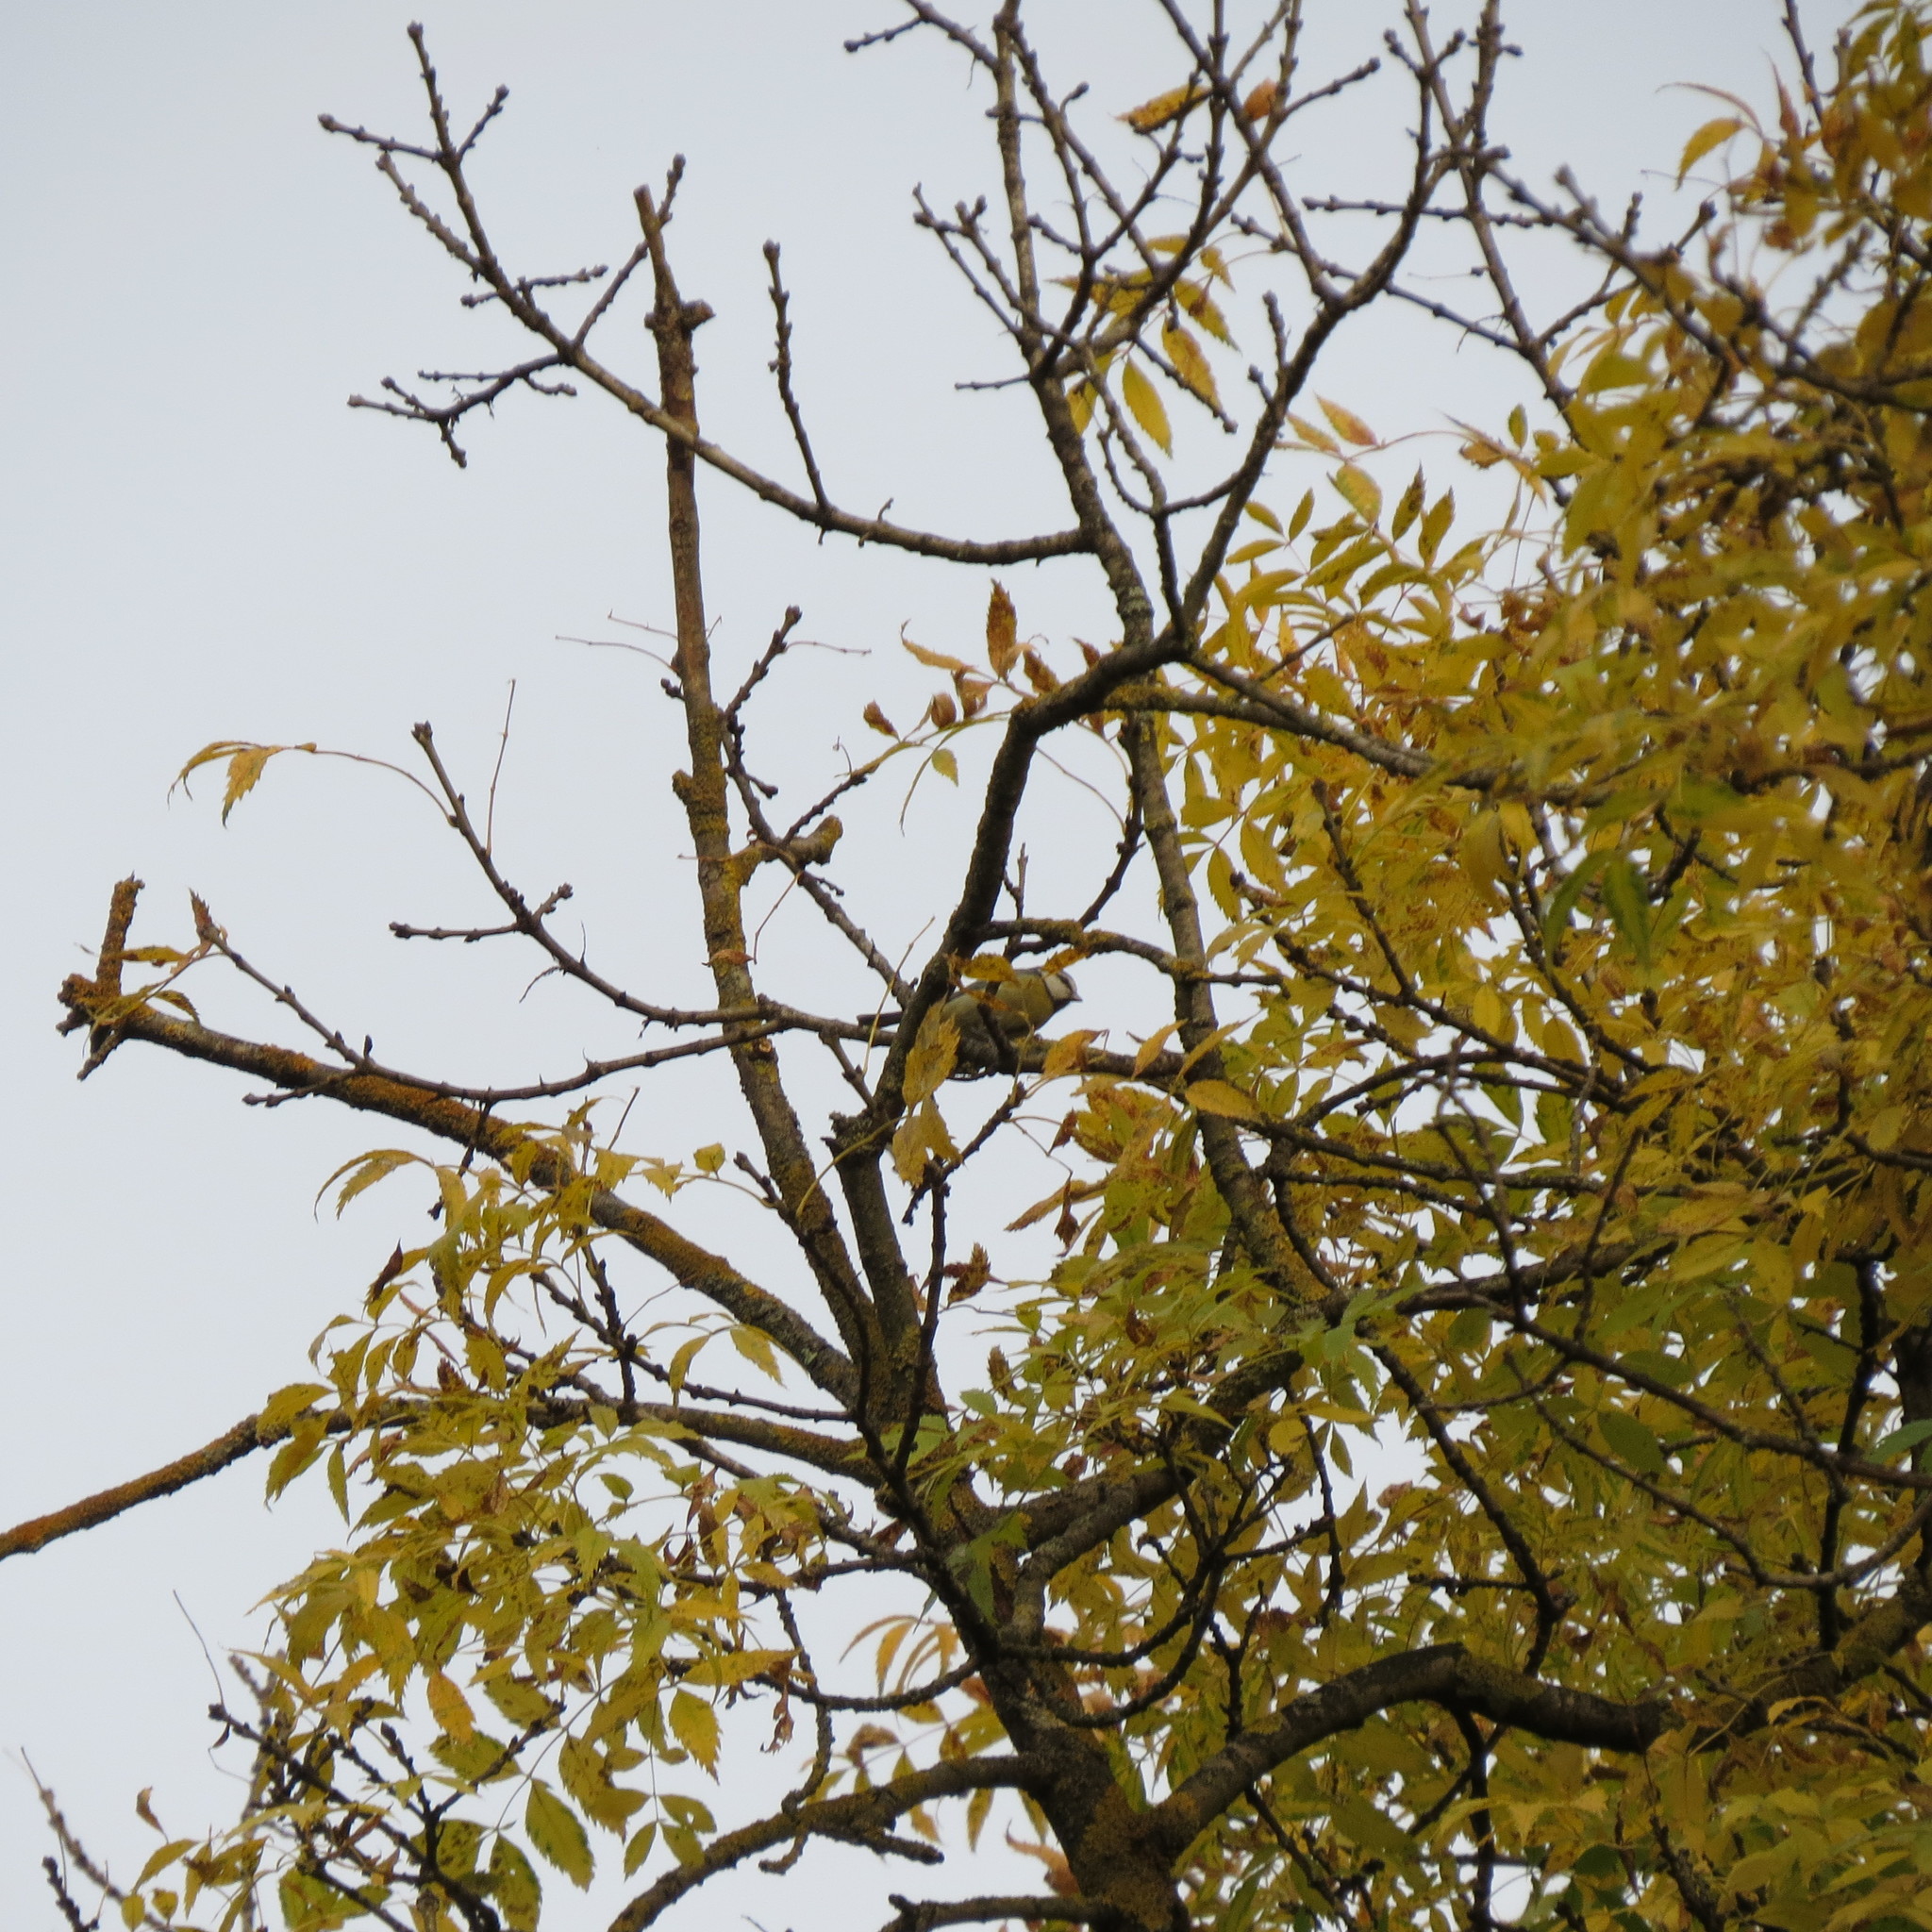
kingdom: Animalia
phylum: Chordata
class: Aves
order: Passeriformes
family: Paridae
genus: Cyanistes
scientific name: Cyanistes caeruleus
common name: Eurasian blue tit
